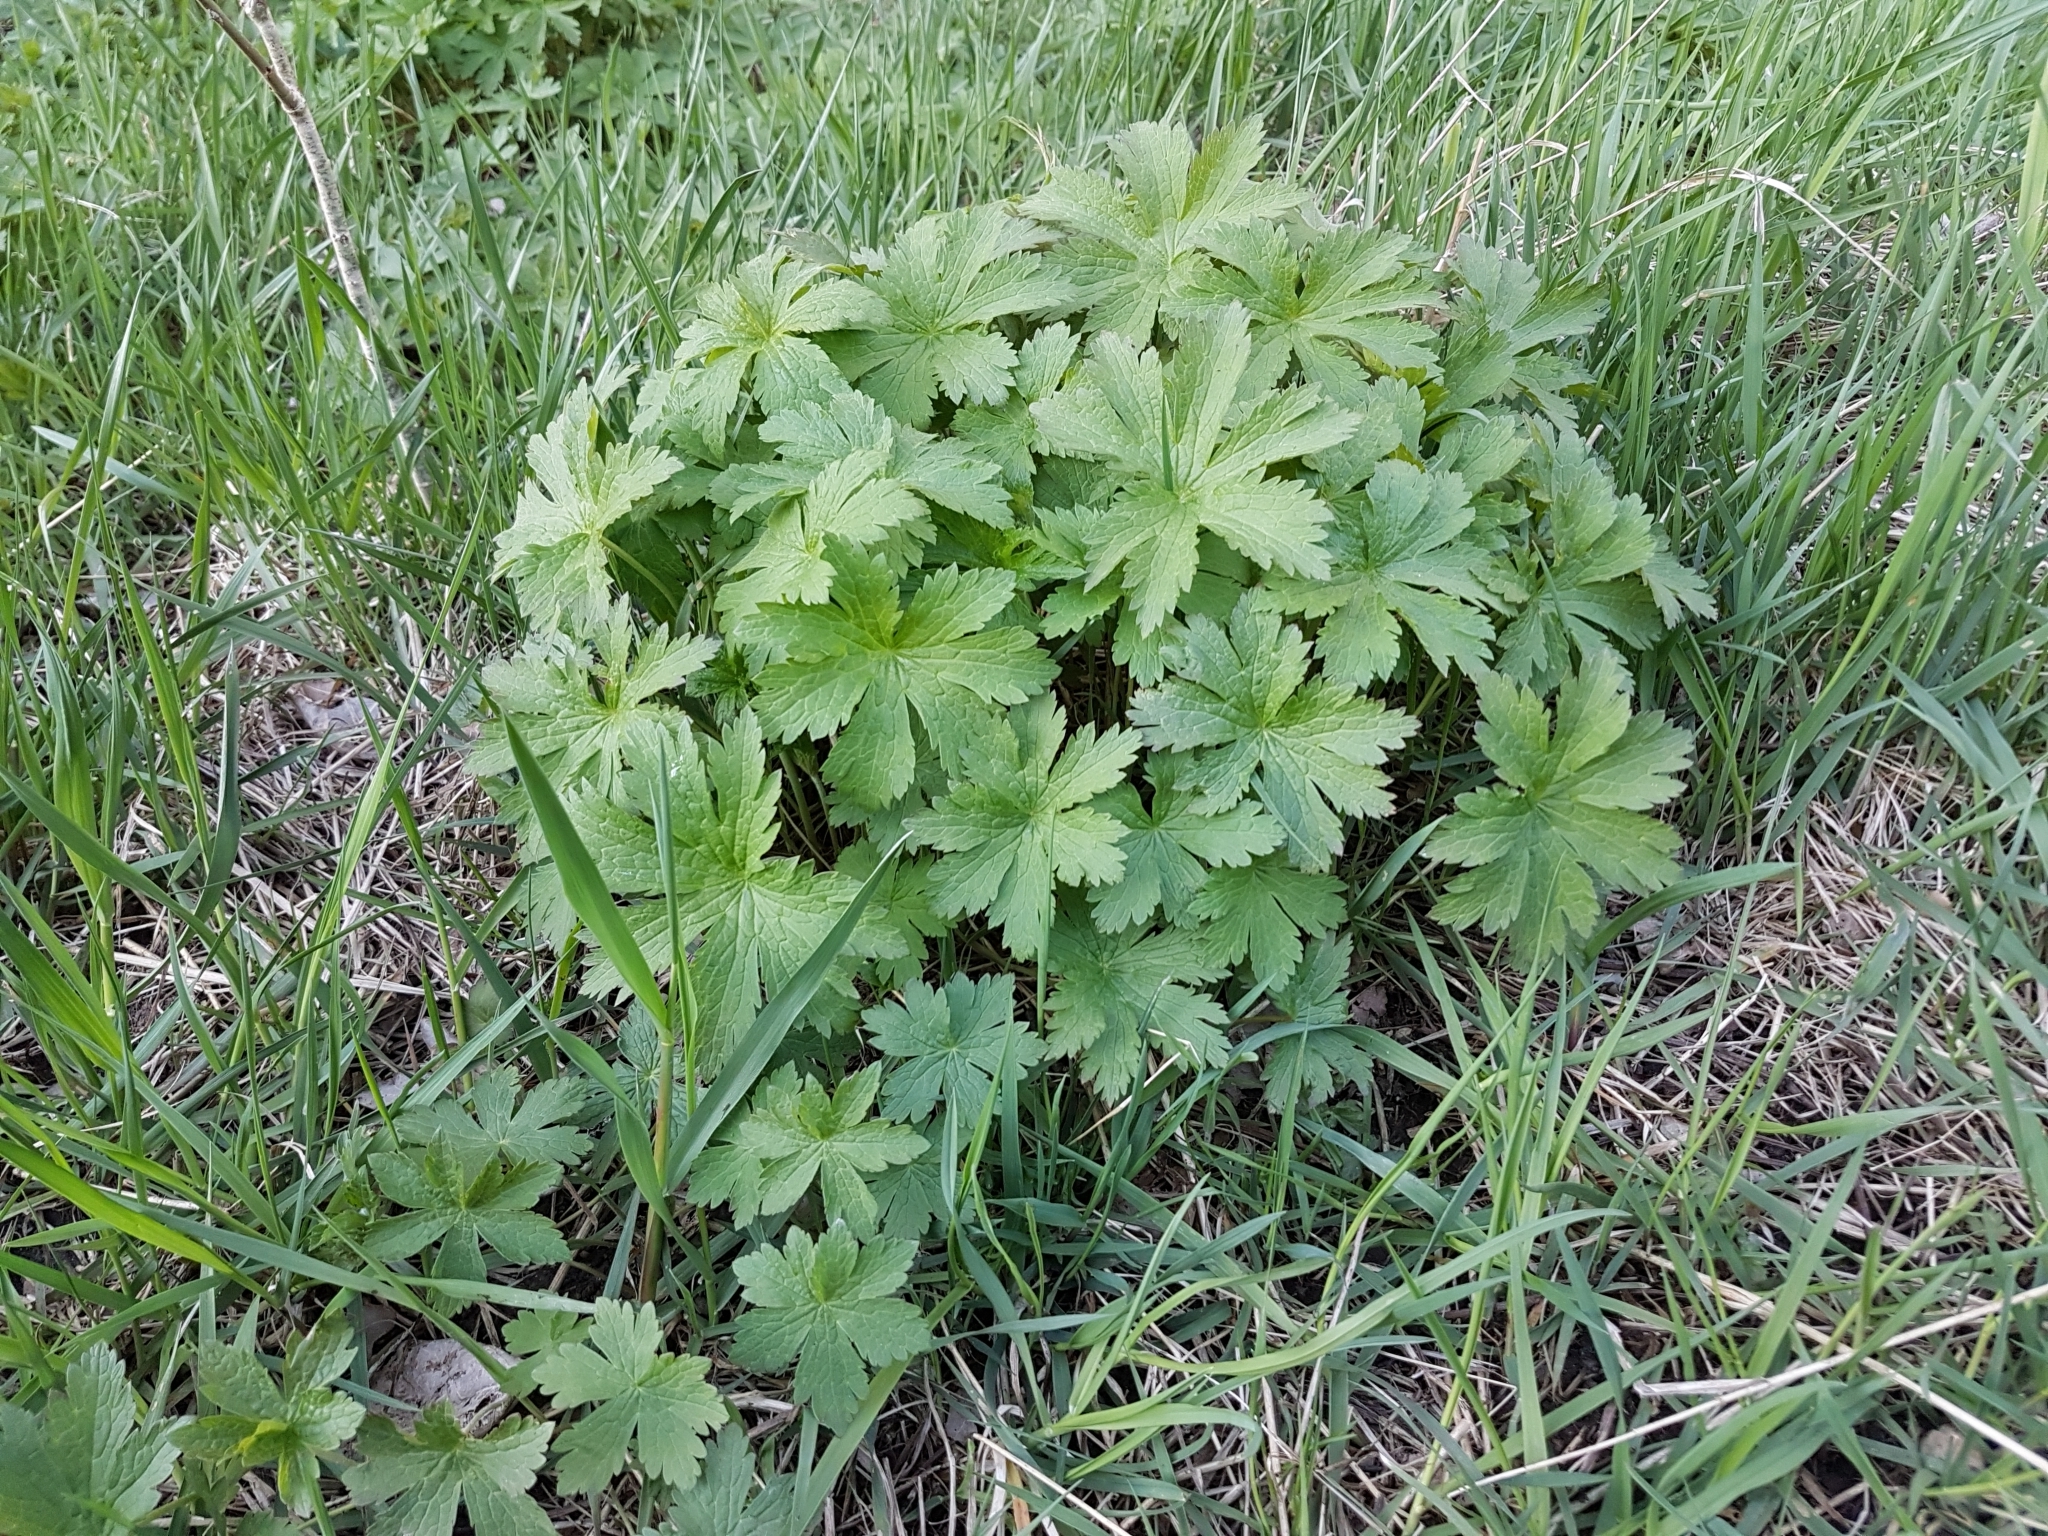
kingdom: Plantae
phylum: Tracheophyta
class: Magnoliopsida
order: Geraniales
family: Geraniaceae
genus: Geranium
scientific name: Geranium sylvaticum
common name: Wood crane's-bill
